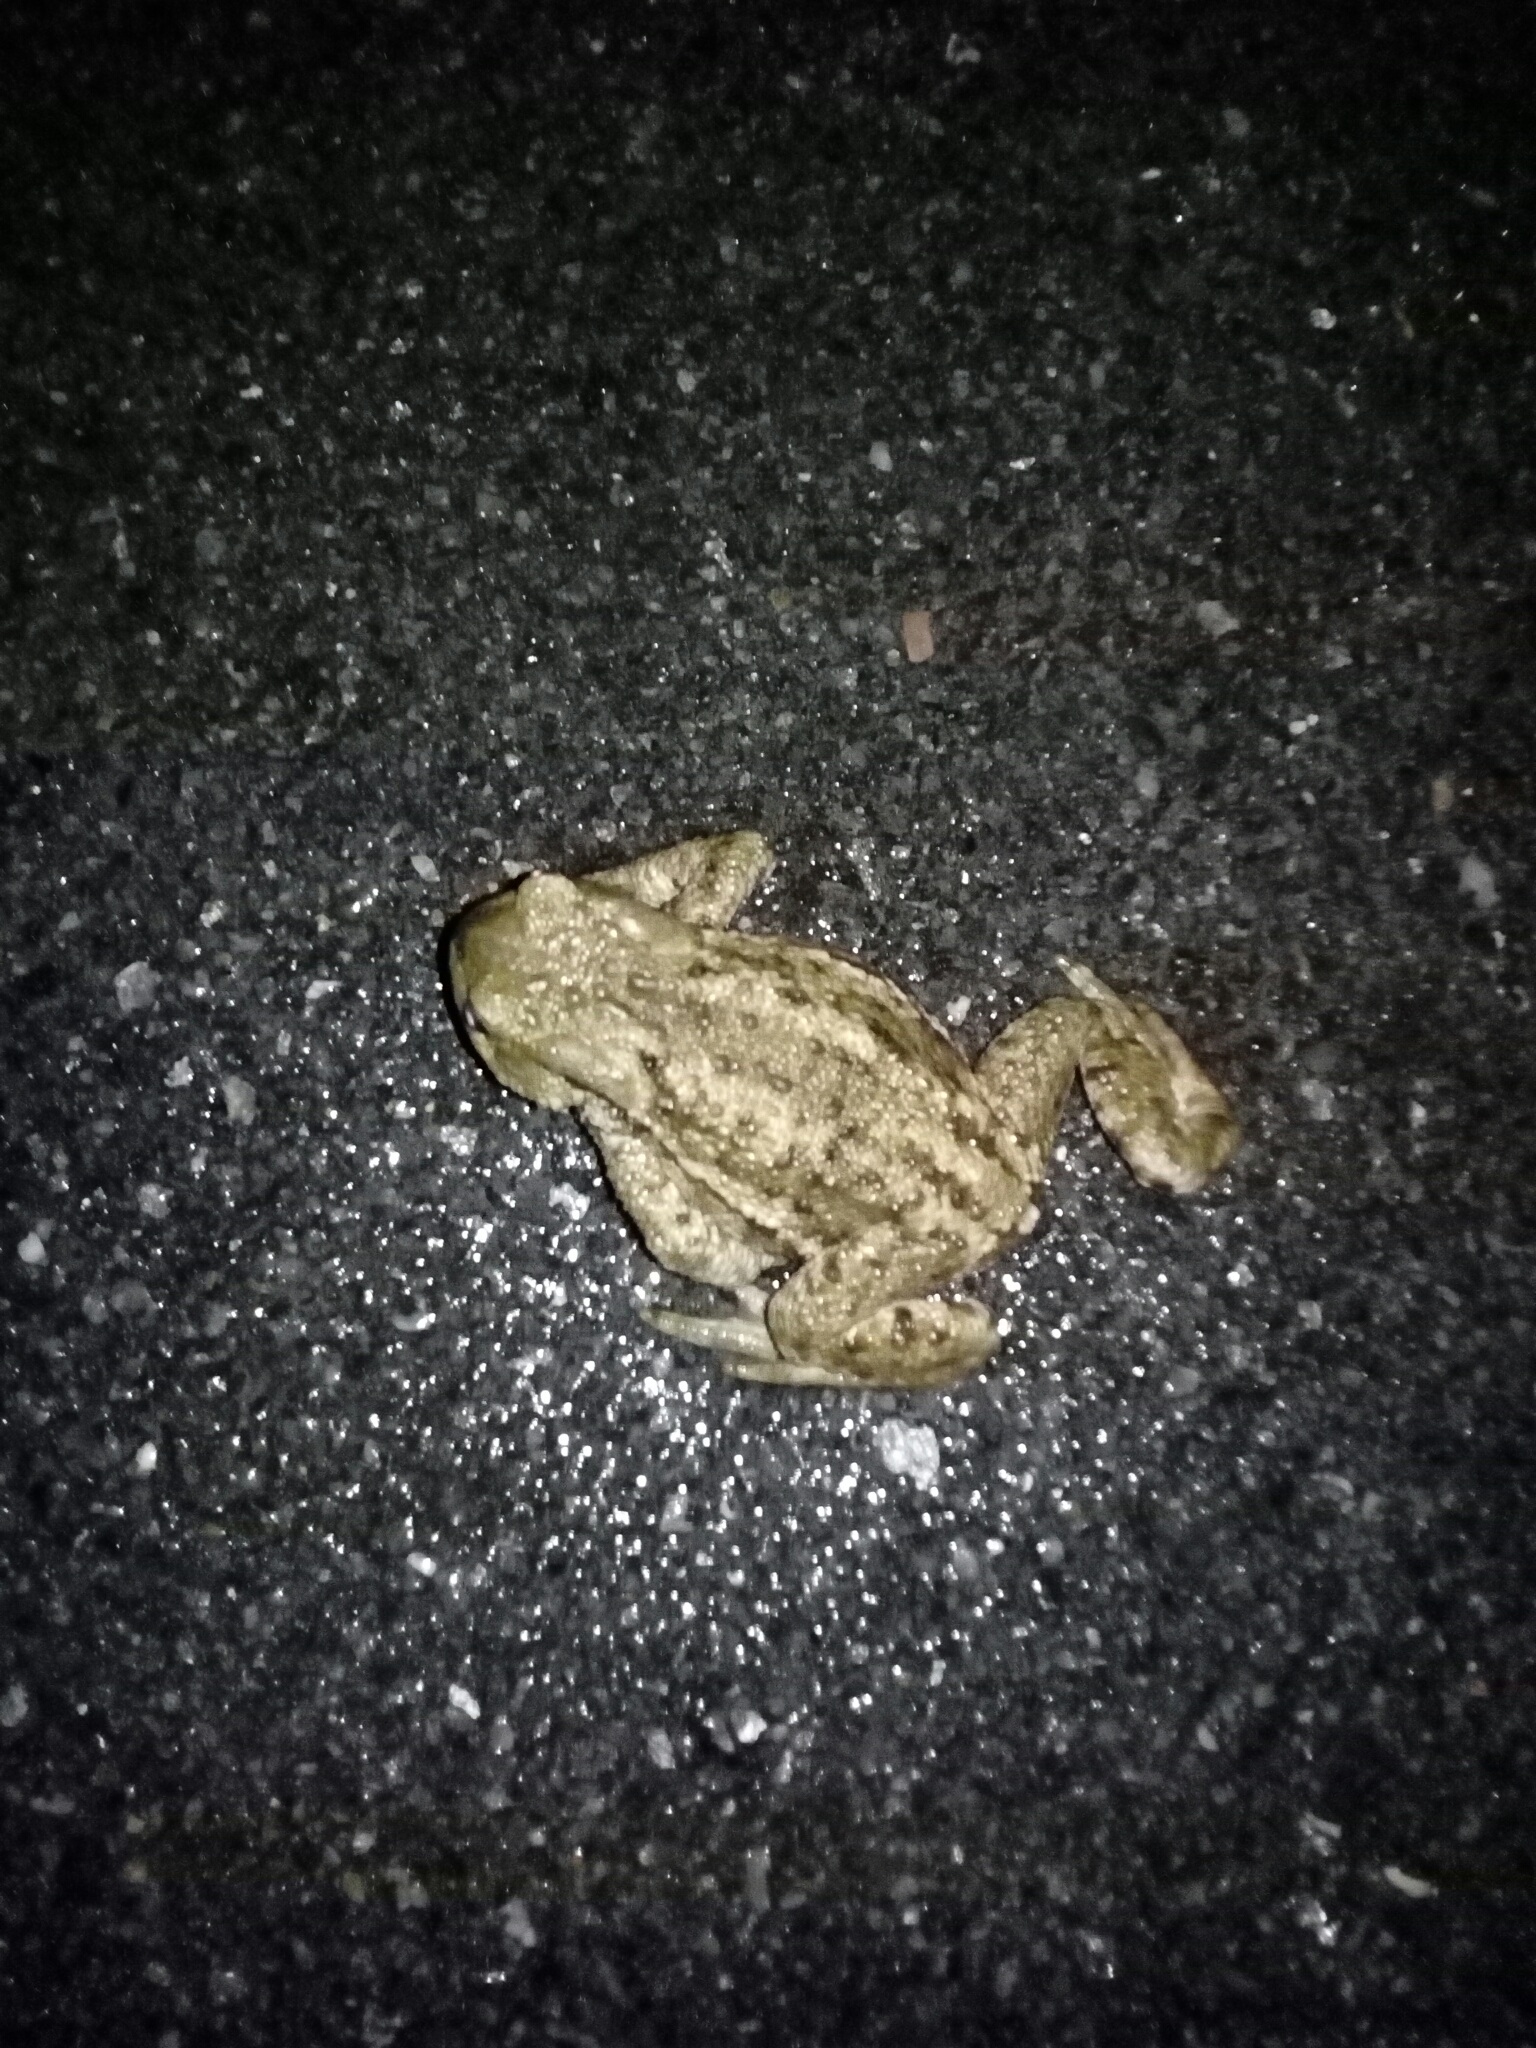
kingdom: Animalia
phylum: Chordata
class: Amphibia
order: Anura
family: Bufonidae
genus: Bufo
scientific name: Bufo bufo
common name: Common toad
